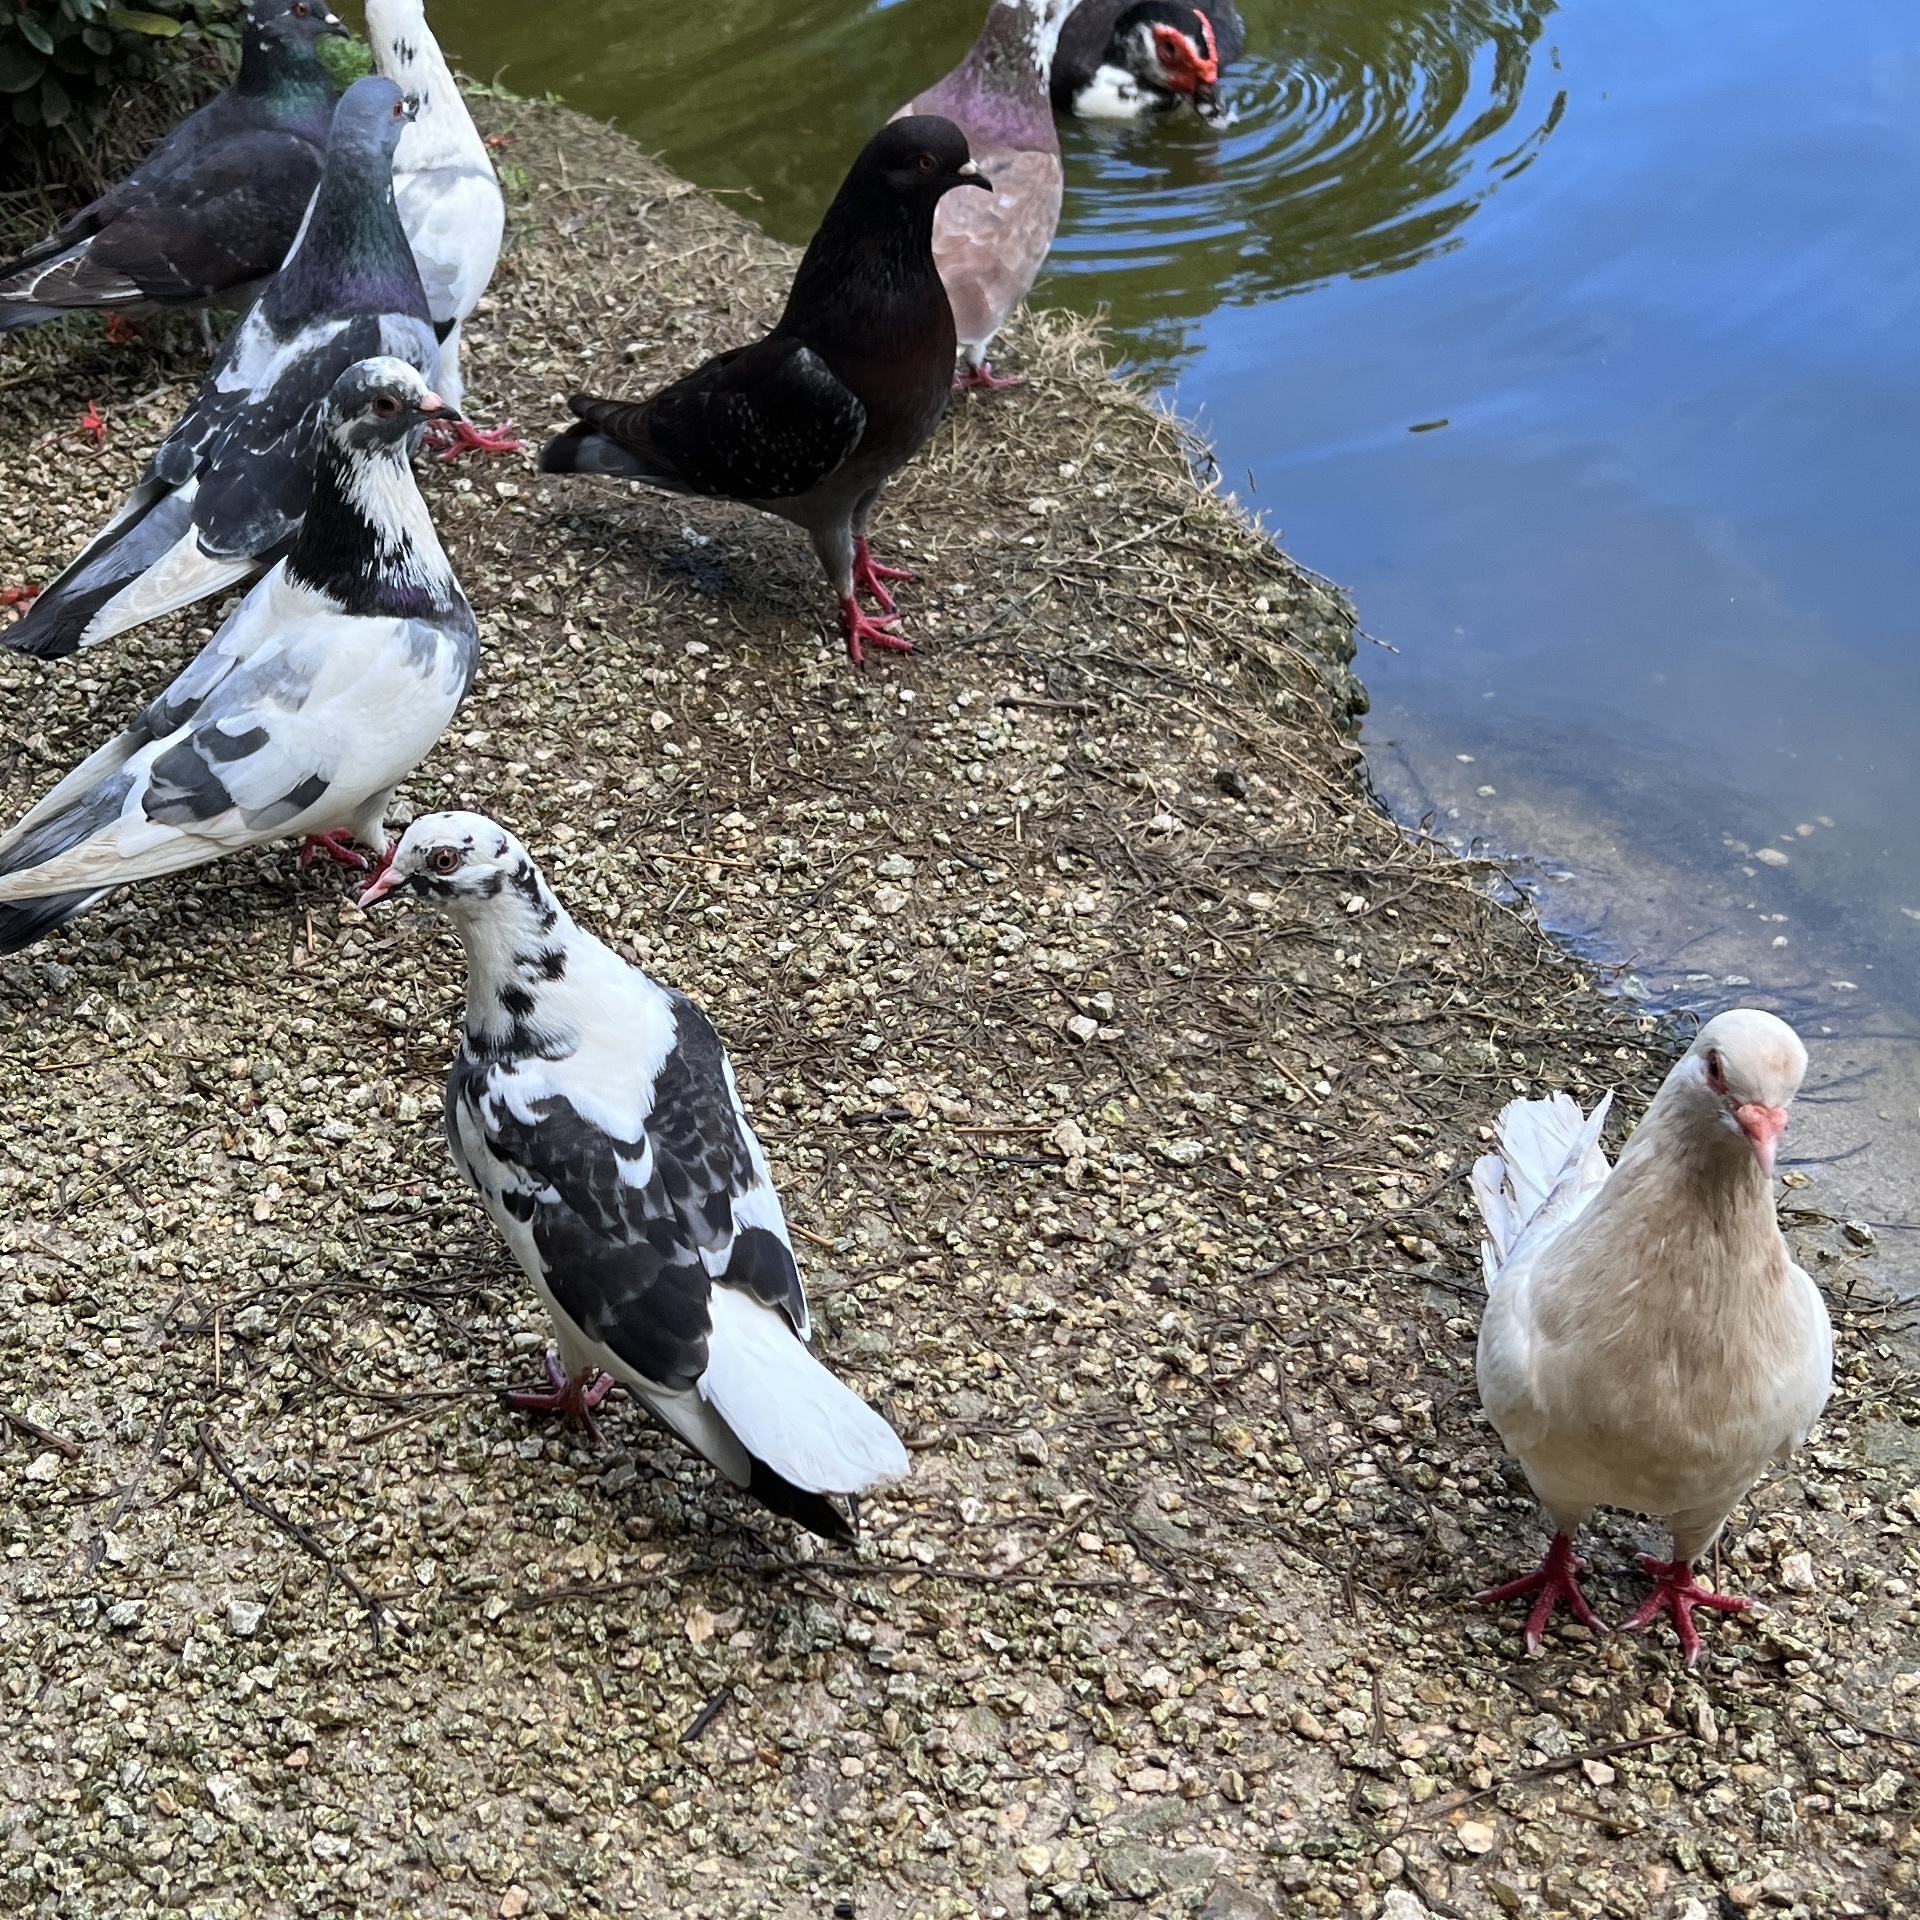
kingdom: Animalia
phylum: Chordata
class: Aves
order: Columbiformes
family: Columbidae
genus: Columba
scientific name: Columba livia
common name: Rock pigeon
